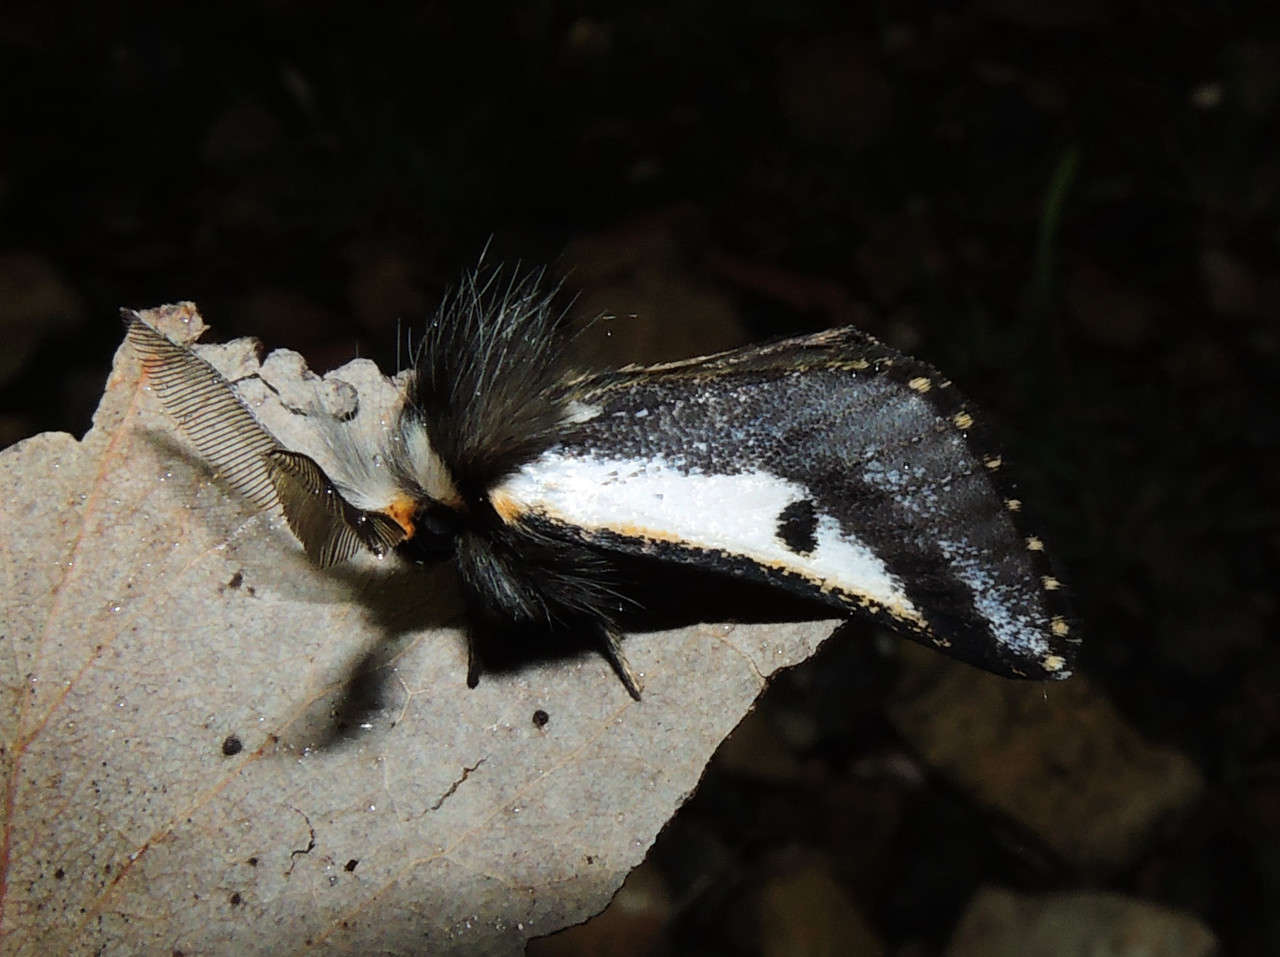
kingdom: Animalia
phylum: Arthropoda
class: Insecta
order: Lepidoptera
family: Notodontidae
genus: Epicoma
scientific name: Epicoma
